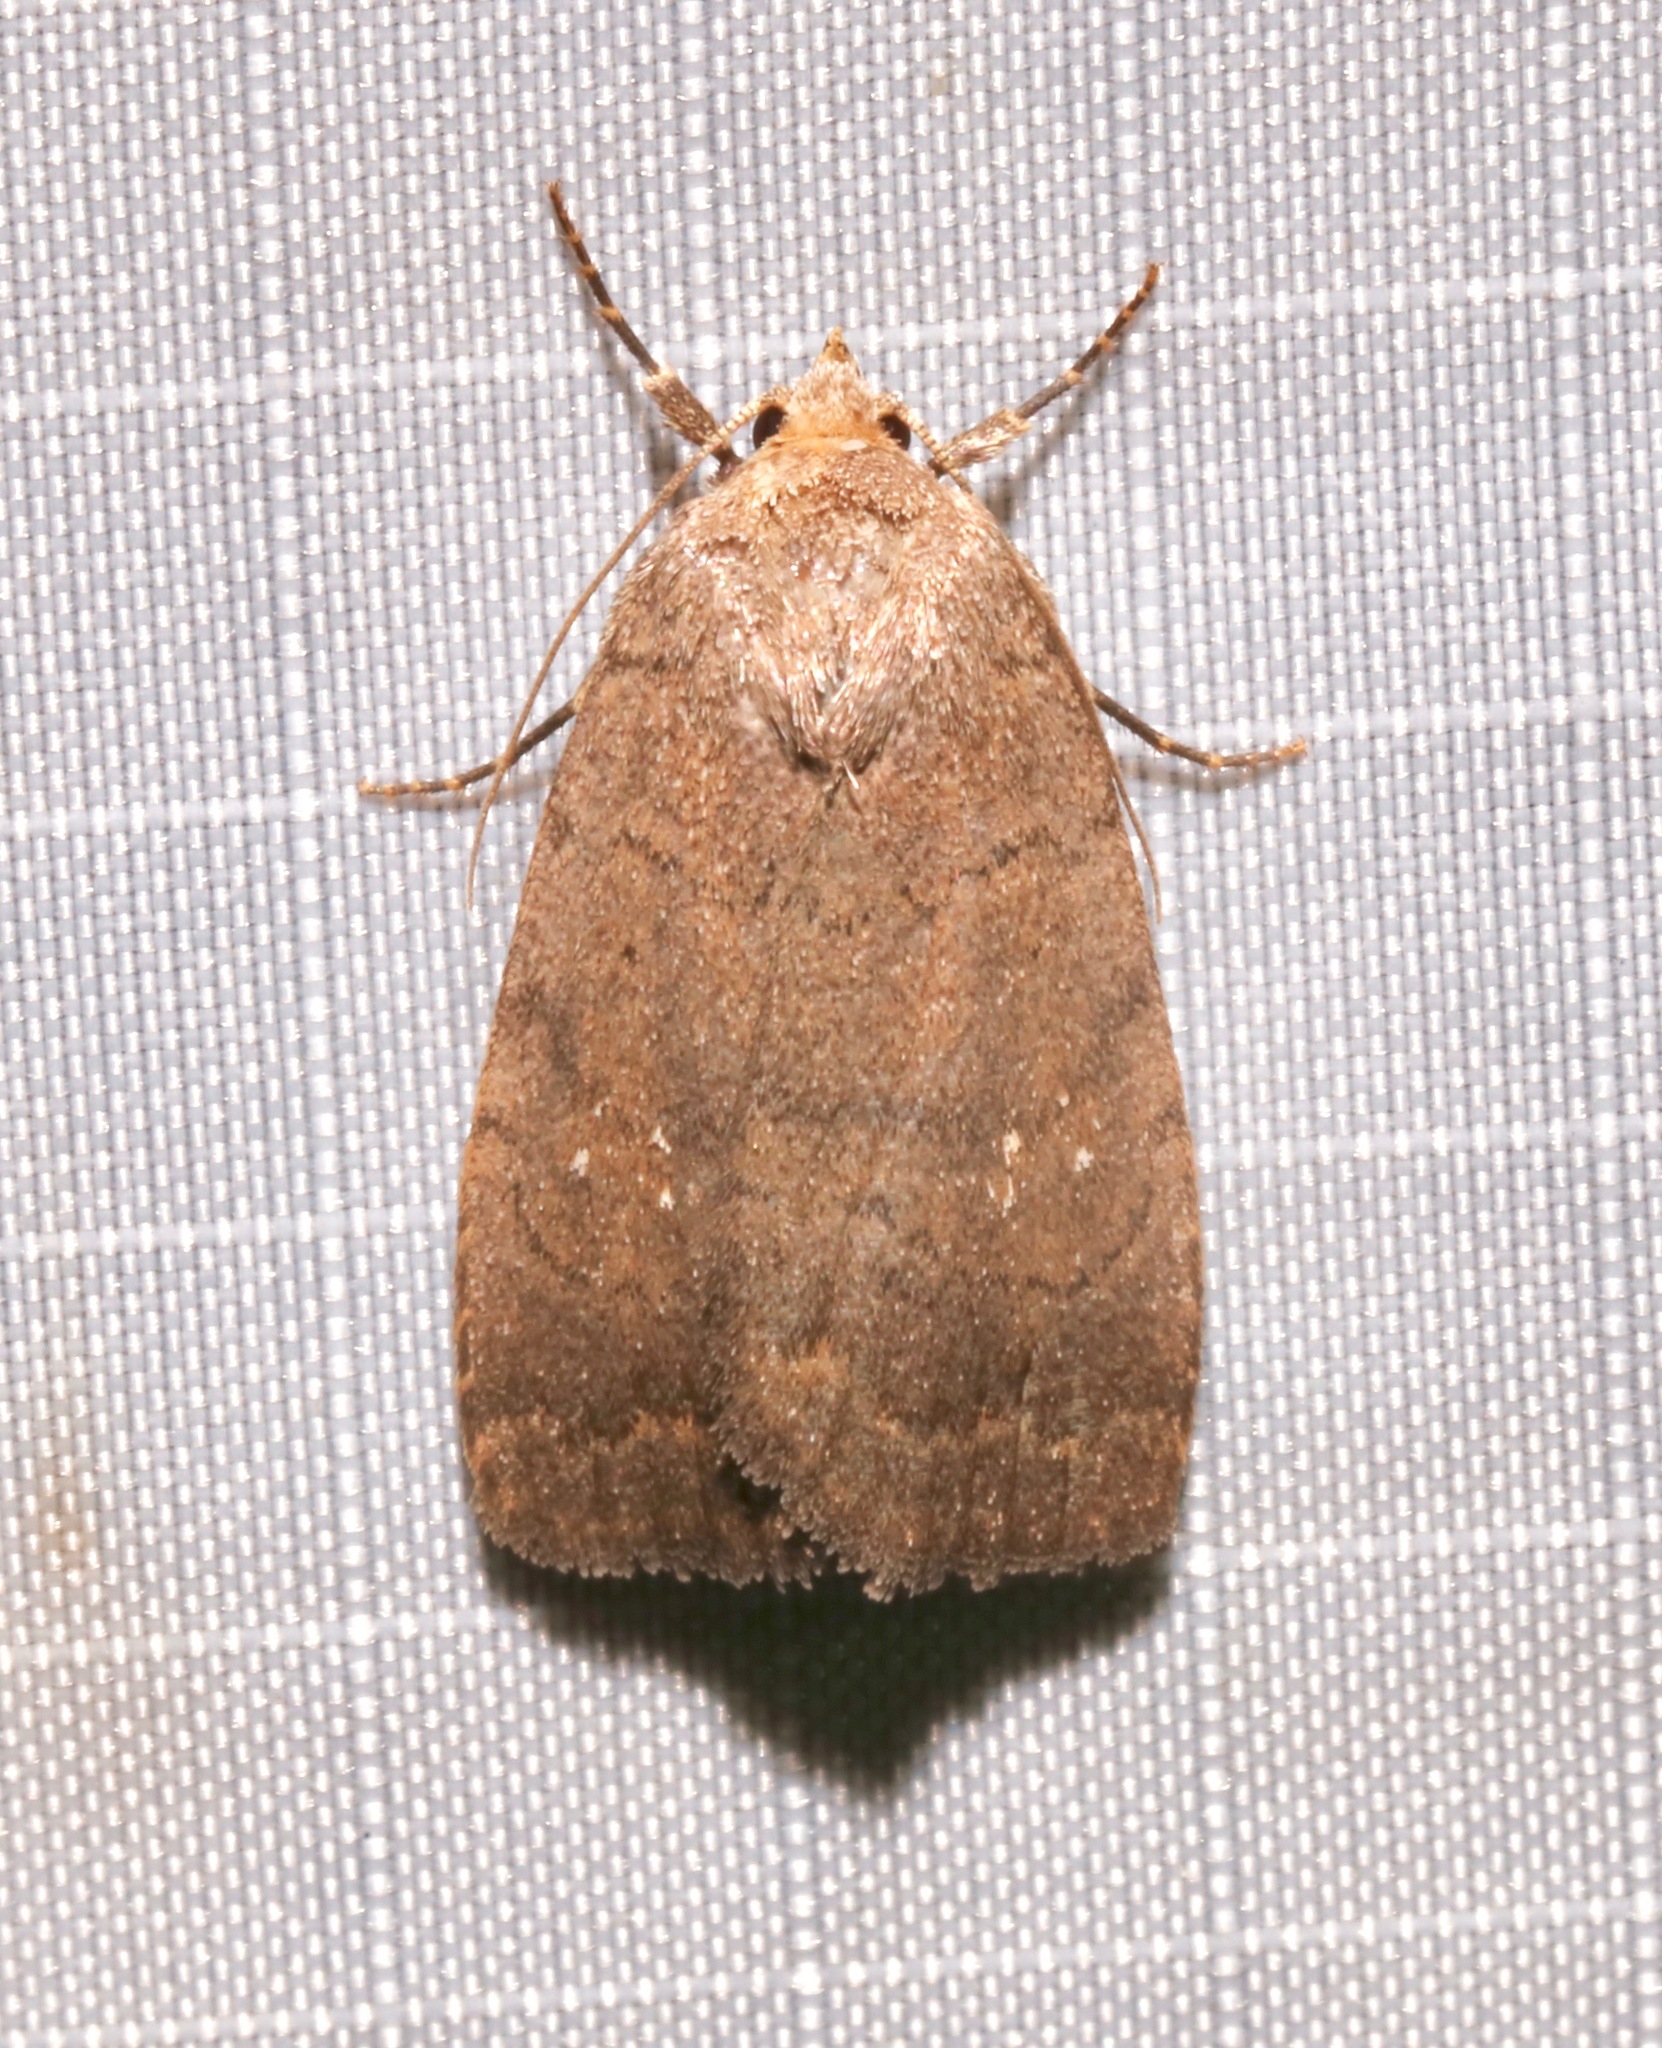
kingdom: Animalia
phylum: Arthropoda
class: Insecta
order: Lepidoptera
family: Noctuidae
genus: Athetis
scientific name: Athetis tarda
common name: Slowpoke moth
